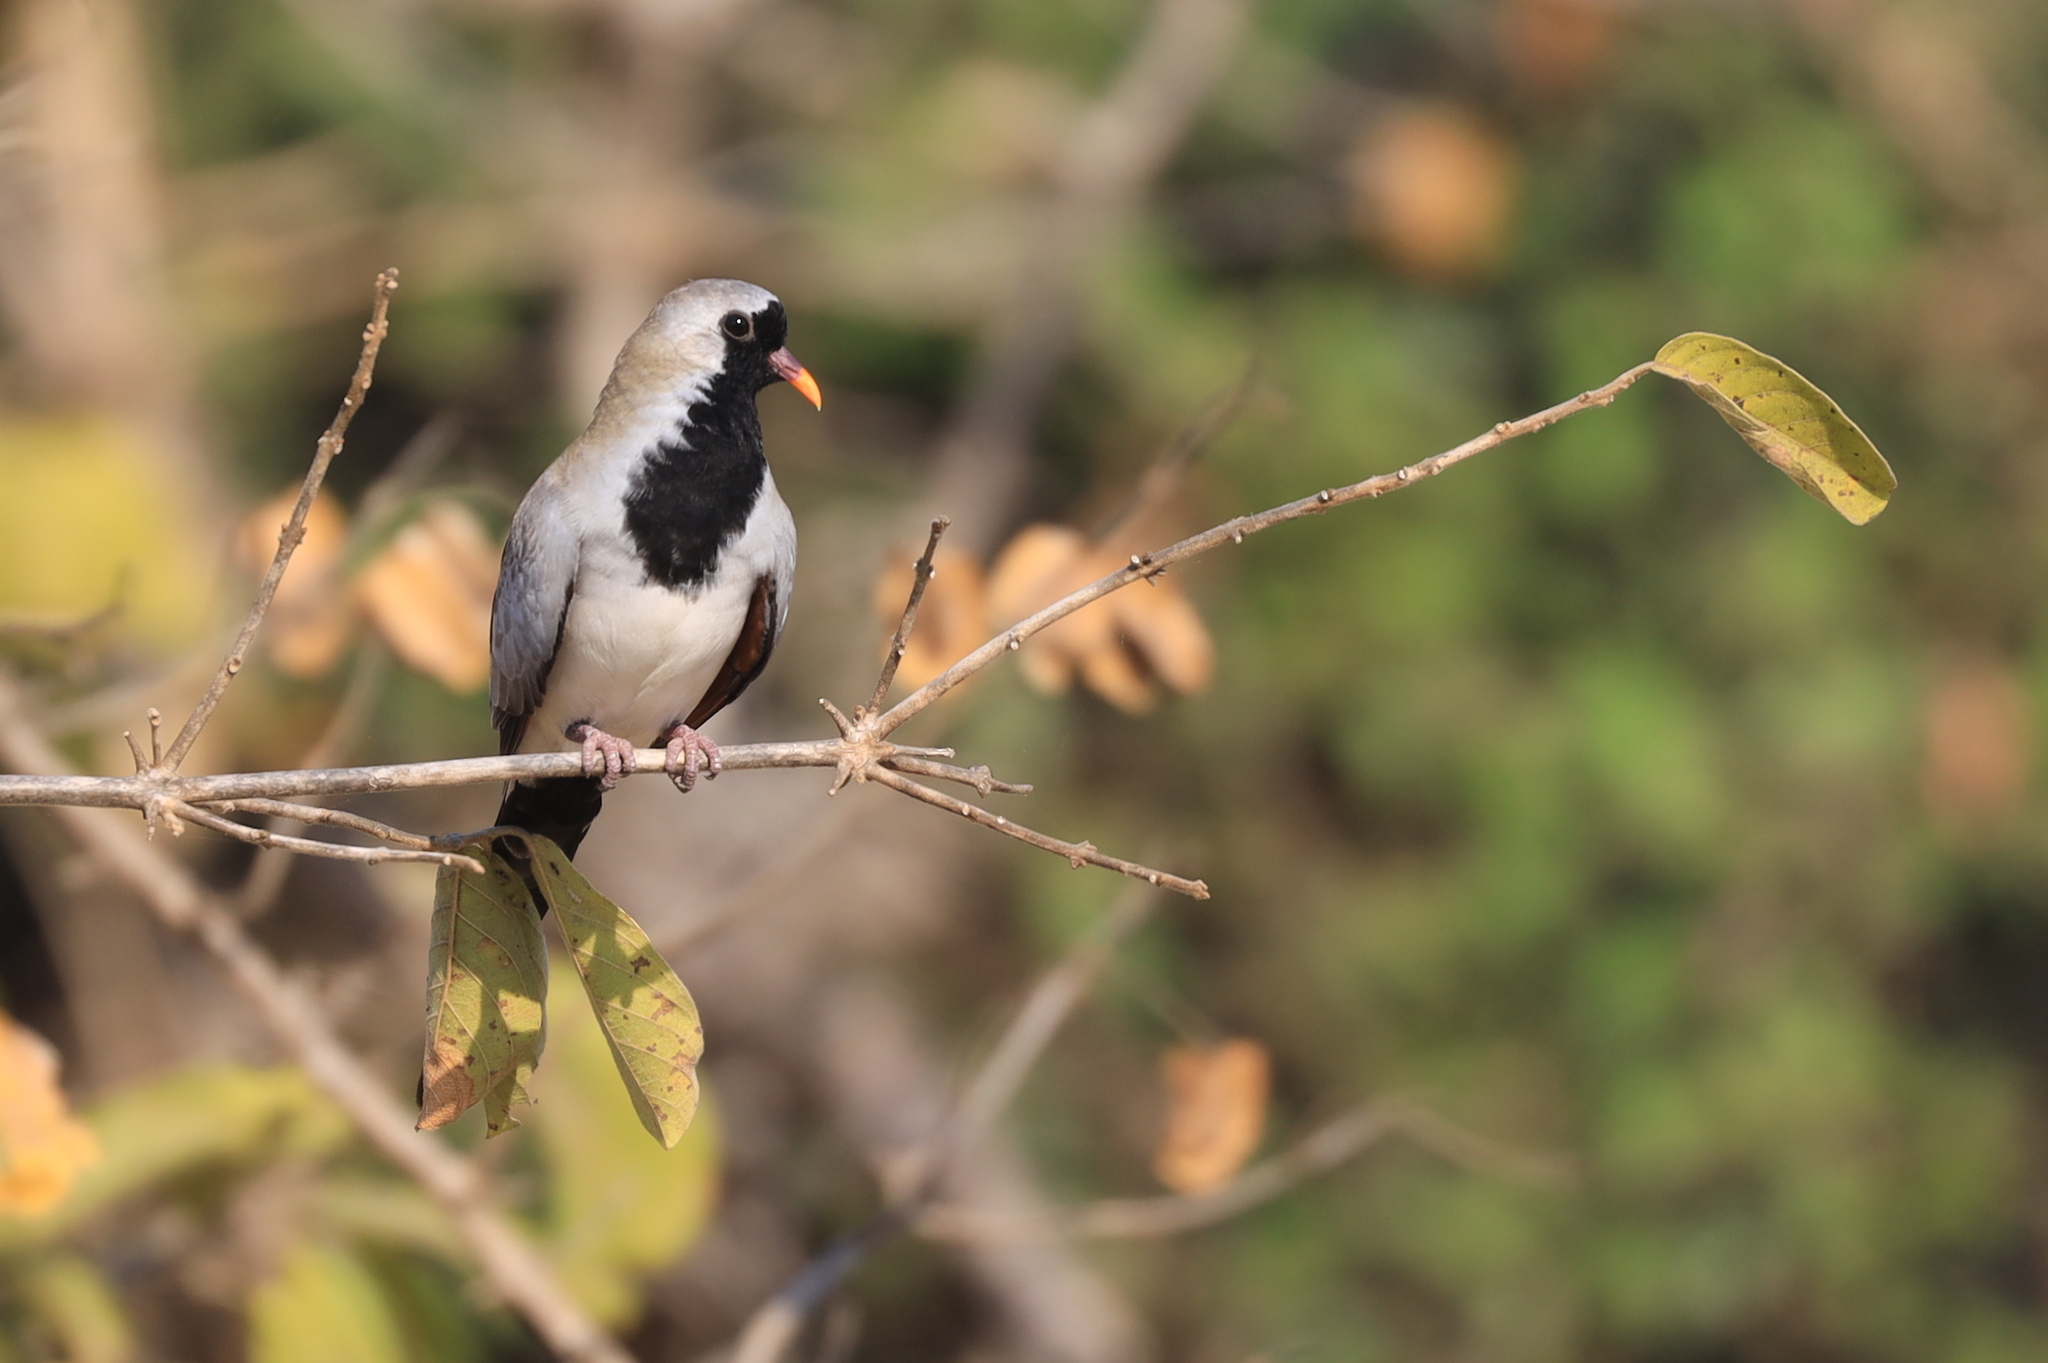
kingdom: Animalia
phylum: Chordata
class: Aves
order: Columbiformes
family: Columbidae
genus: Oena
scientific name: Oena capensis
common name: Namaqua dove
